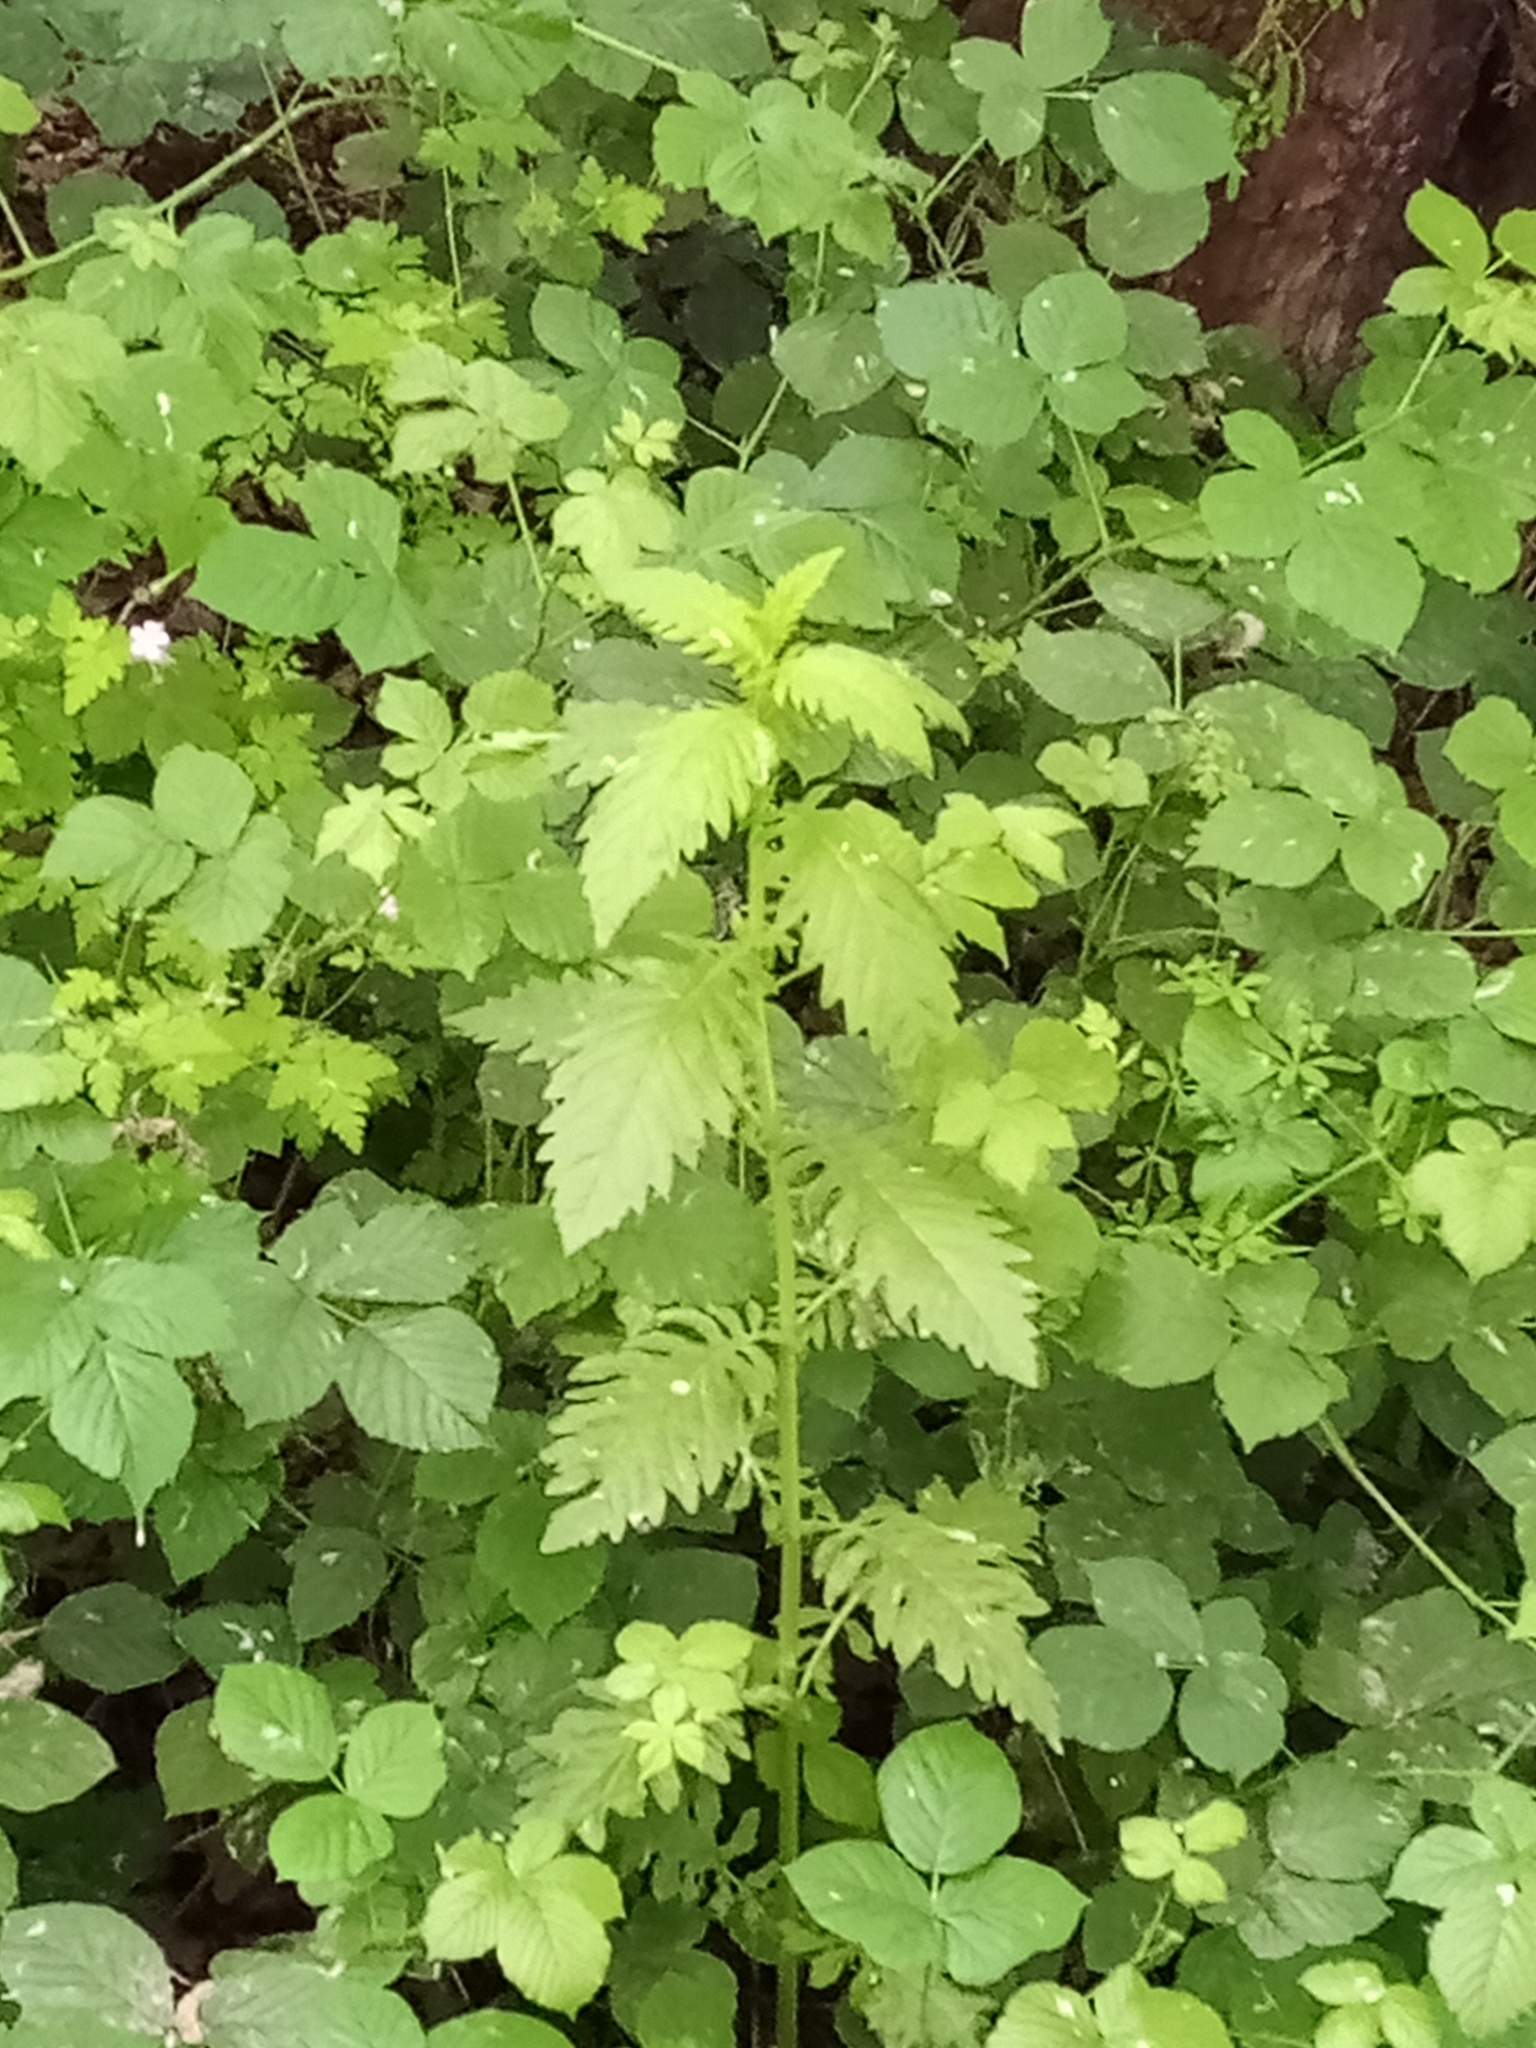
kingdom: Plantae
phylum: Tracheophyta
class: Magnoliopsida
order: Lamiales
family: Lamiaceae
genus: Lycopus
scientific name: Lycopus europaeus
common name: European bugleweed
